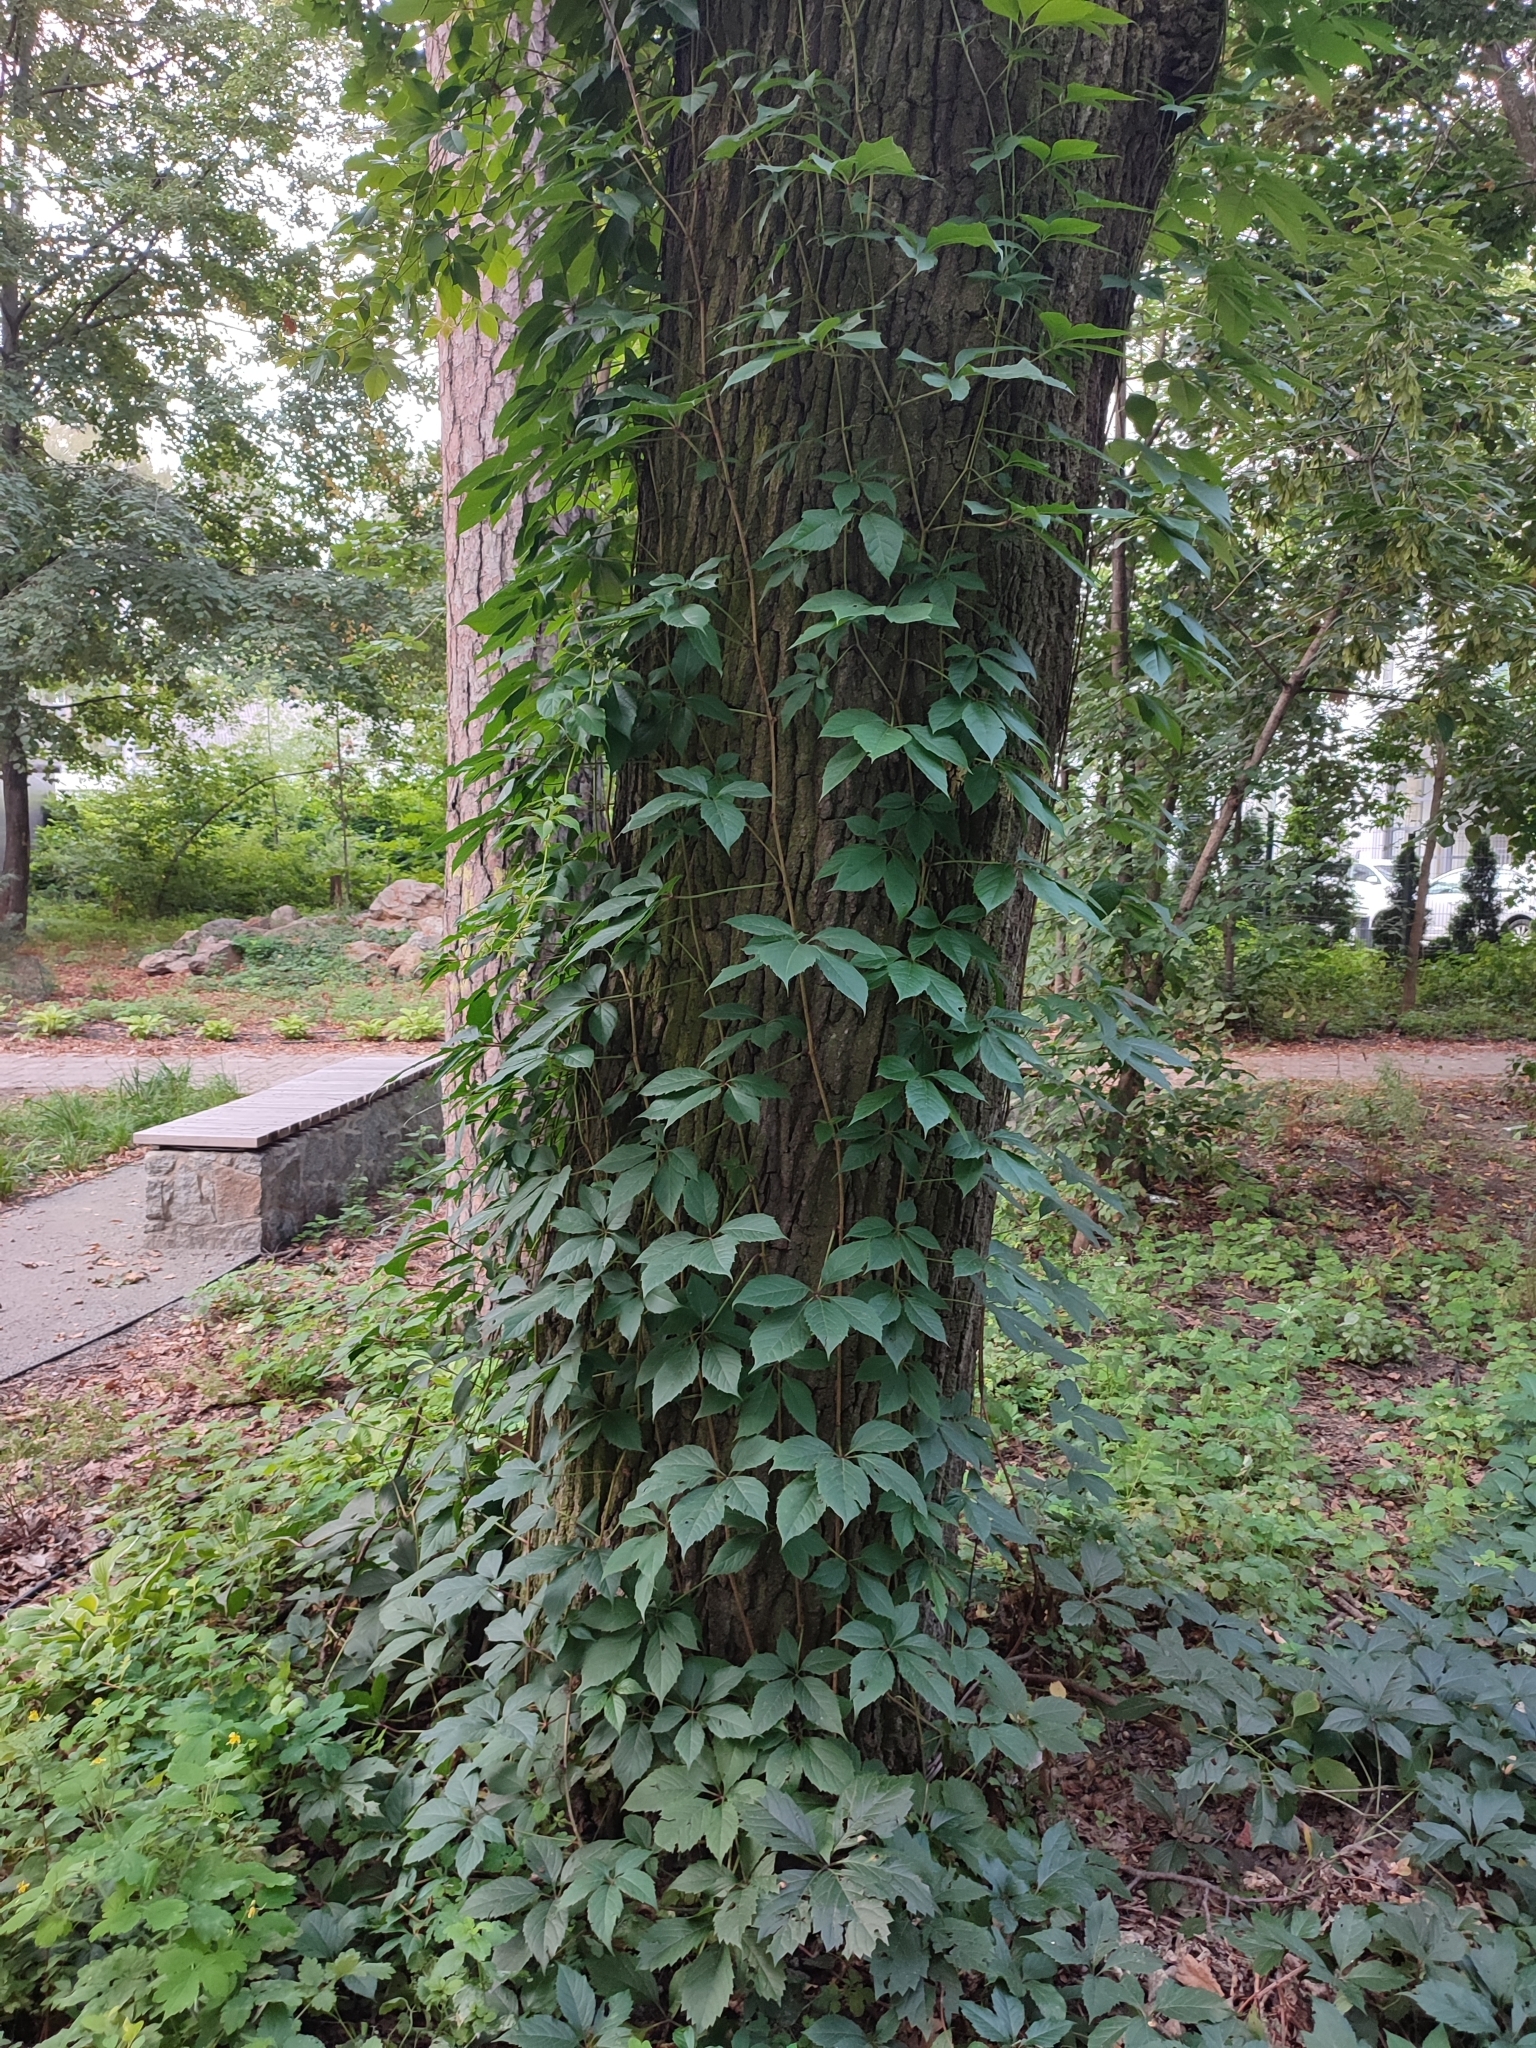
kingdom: Plantae
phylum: Tracheophyta
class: Magnoliopsida
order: Fagales
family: Fagaceae
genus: Quercus
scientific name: Quercus robur
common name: Pedunculate oak
